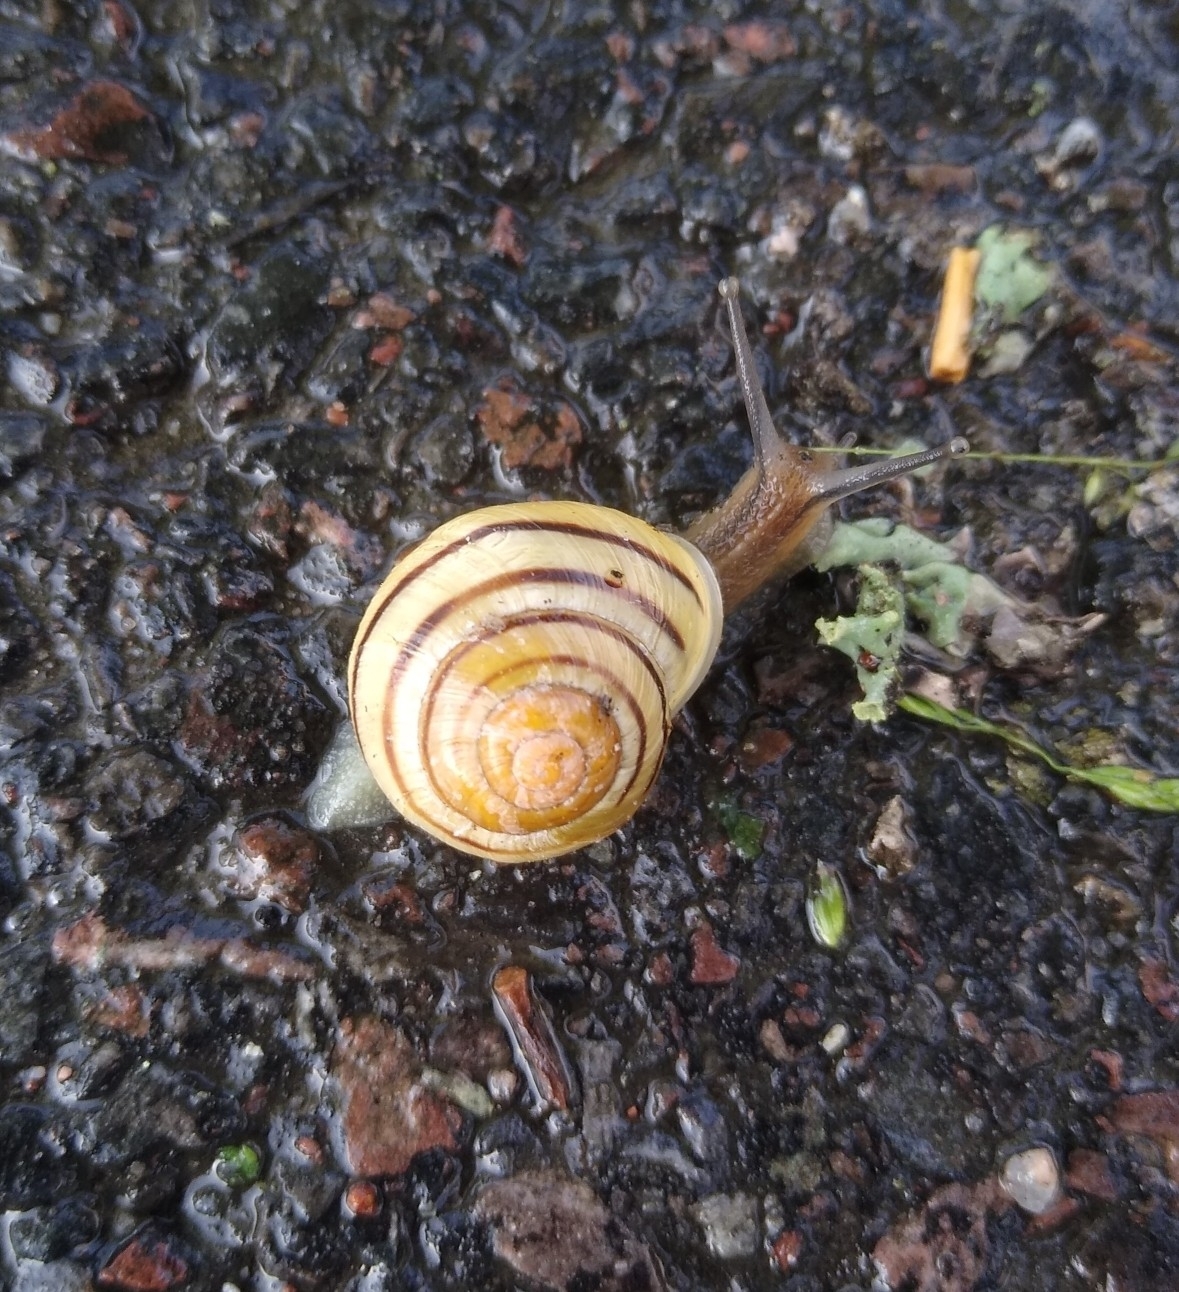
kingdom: Animalia
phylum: Mollusca
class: Gastropoda
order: Stylommatophora
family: Helicidae
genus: Cepaea
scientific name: Cepaea hortensis
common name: White-lip gardensnail
